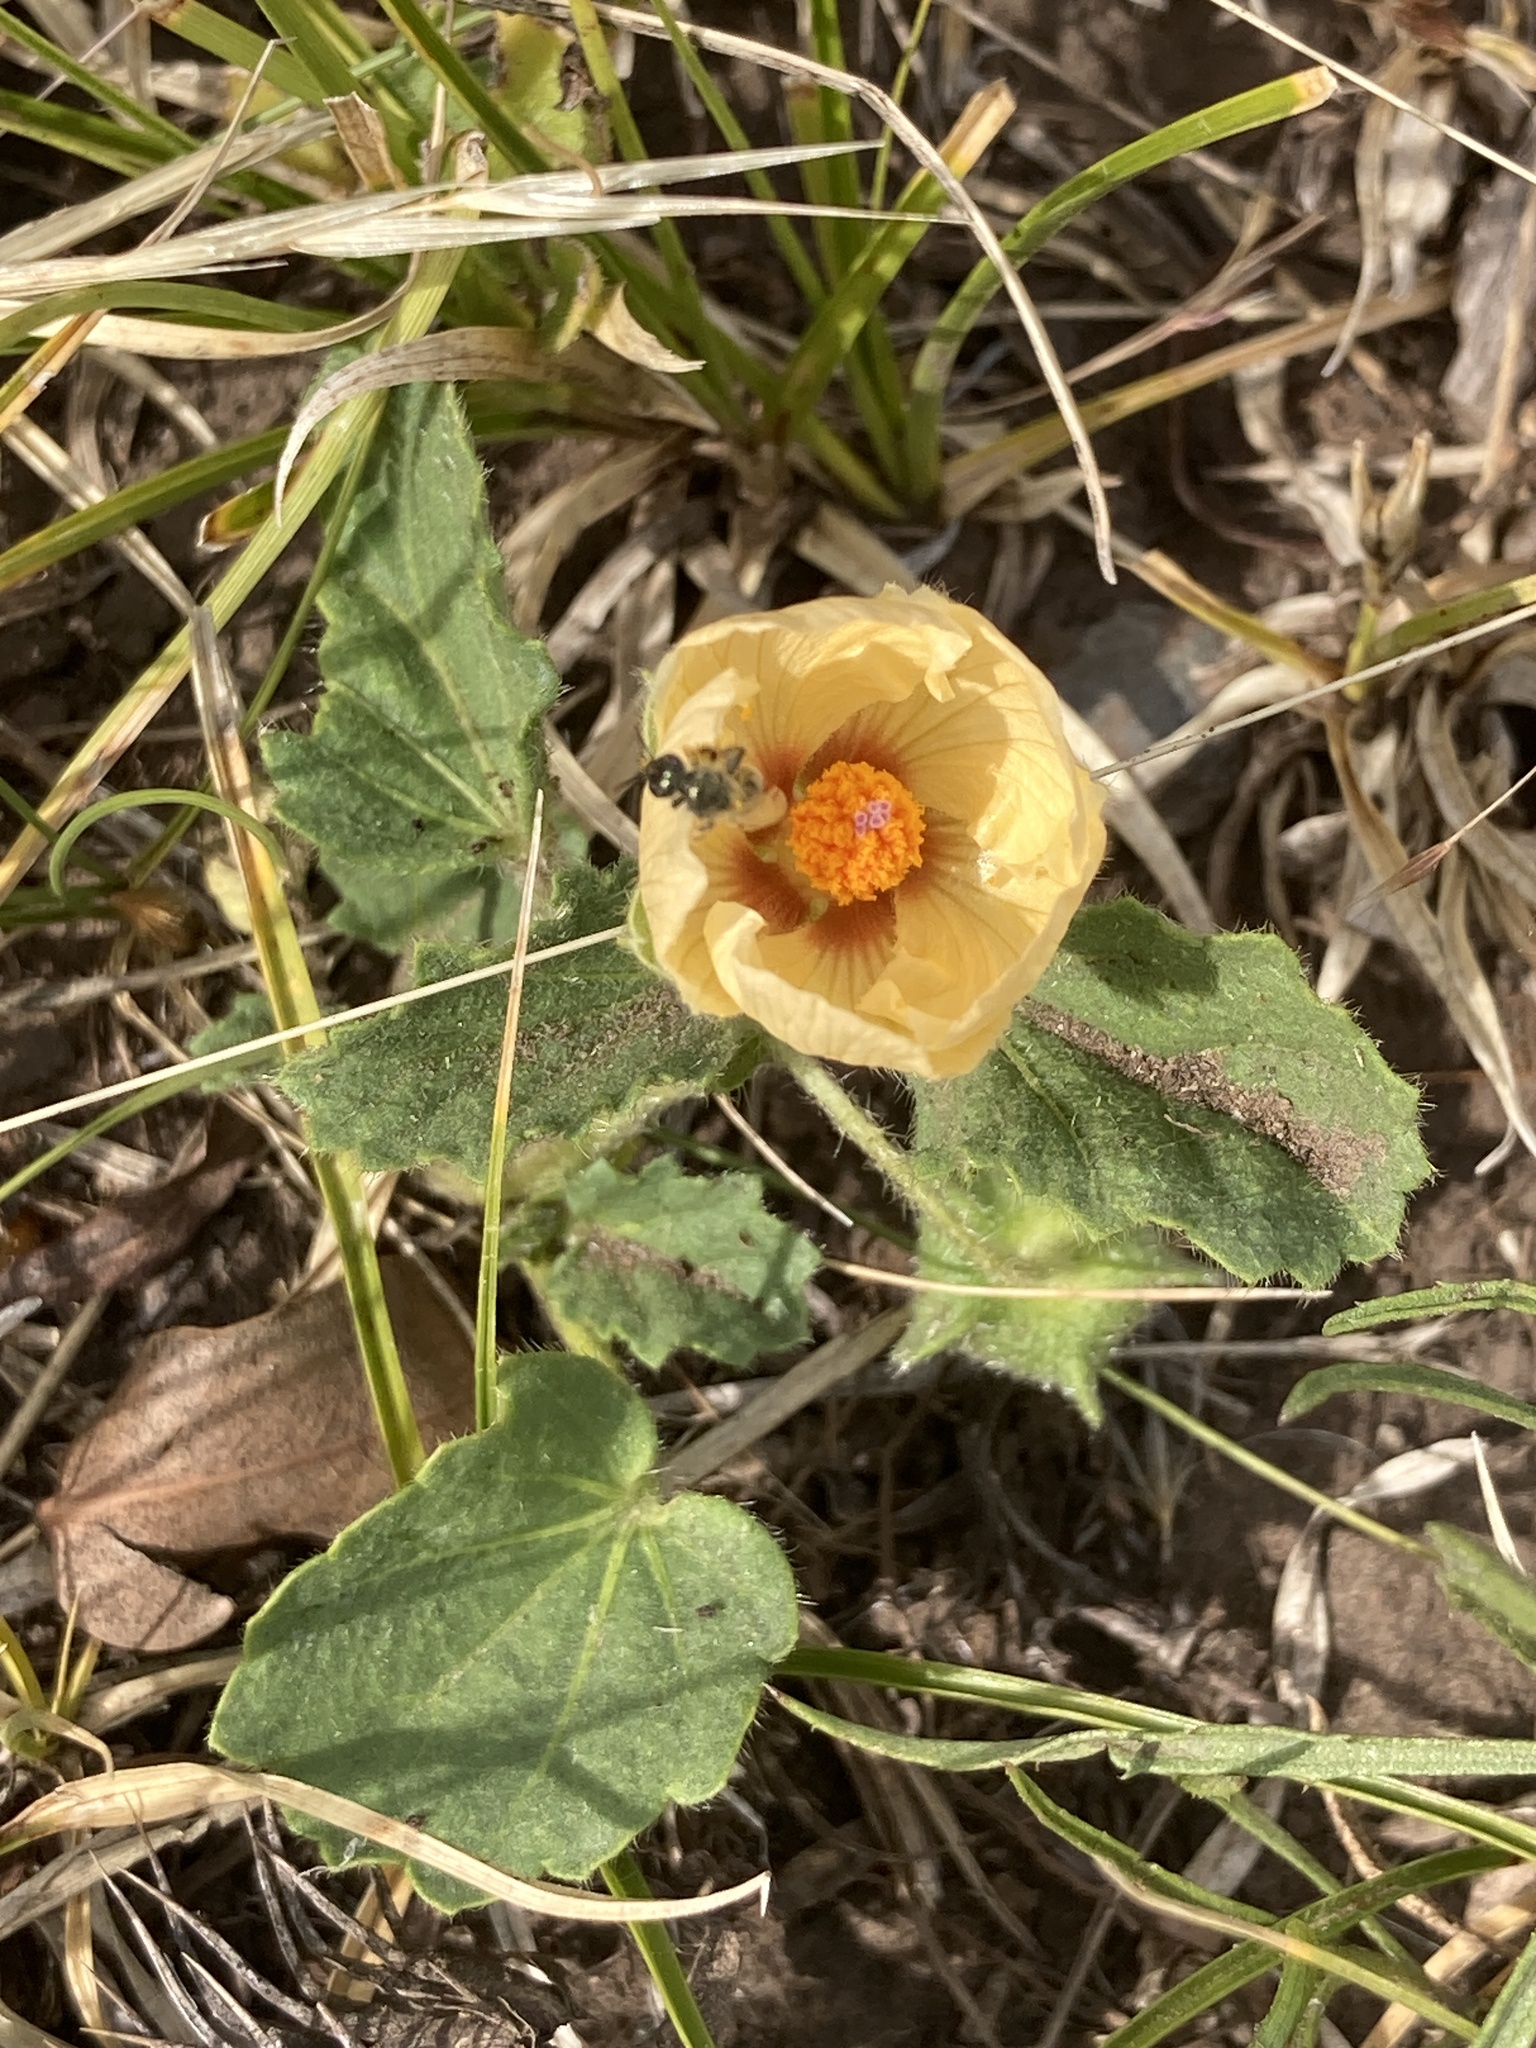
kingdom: Plantae
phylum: Tracheophyta
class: Magnoliopsida
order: Malvales
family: Malvaceae
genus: Rhynchosida
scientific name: Rhynchosida physocalyx
